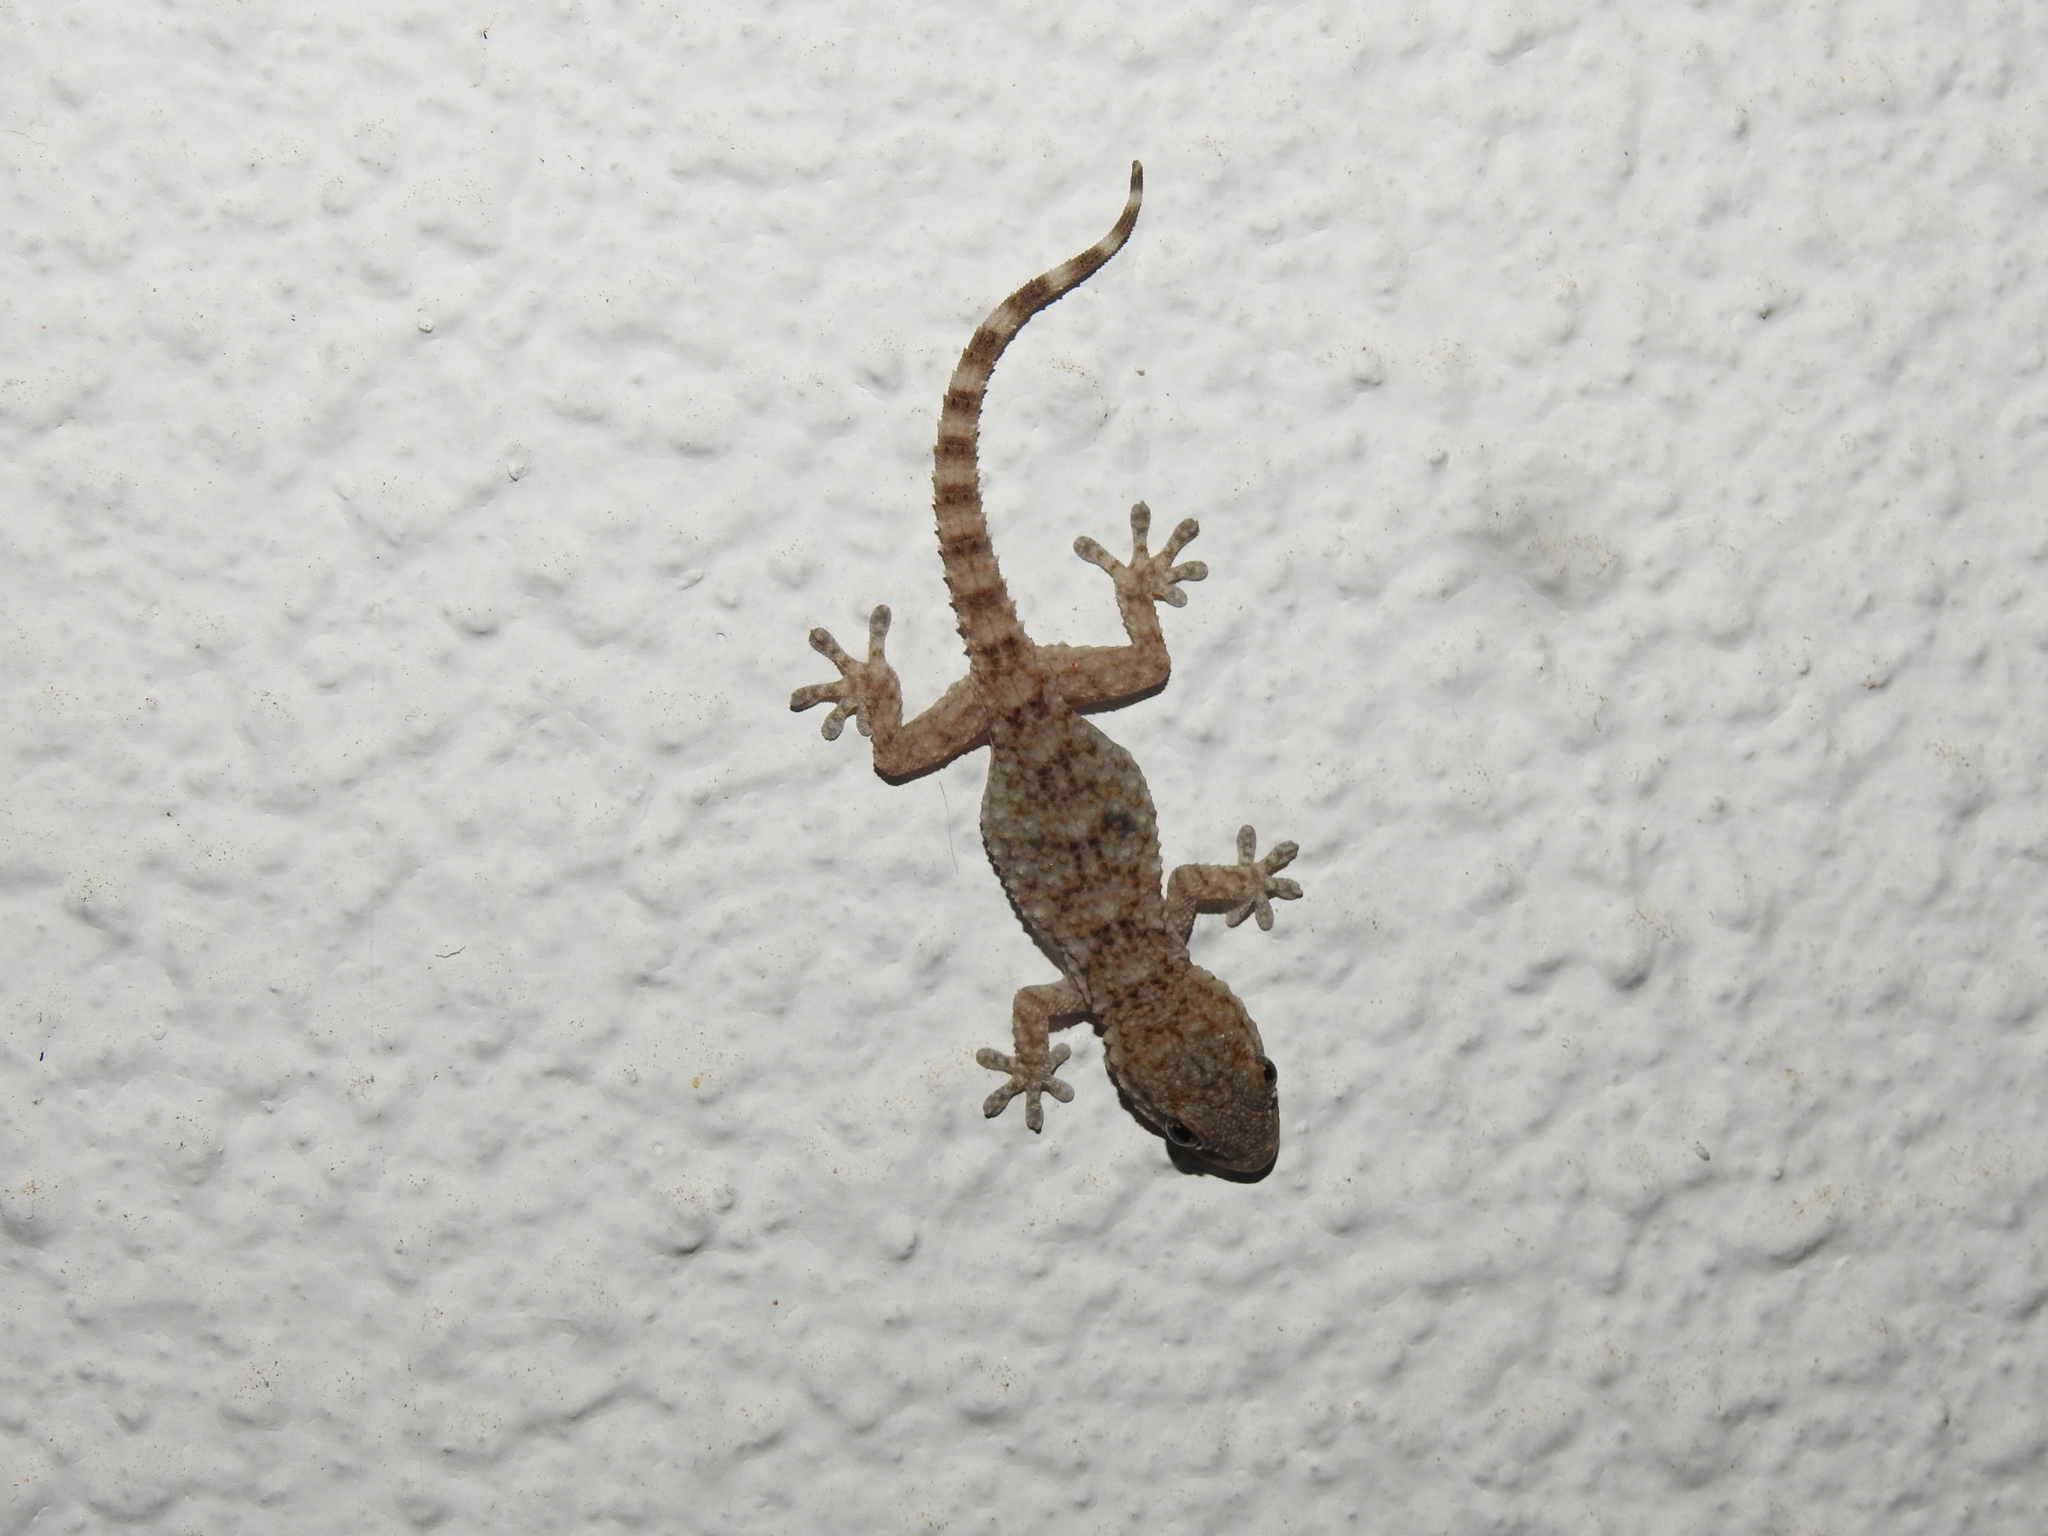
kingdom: Animalia
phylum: Chordata
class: Squamata
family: Phyllodactylidae
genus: Tarentola
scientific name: Tarentola mauritanica
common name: Moorish gecko
